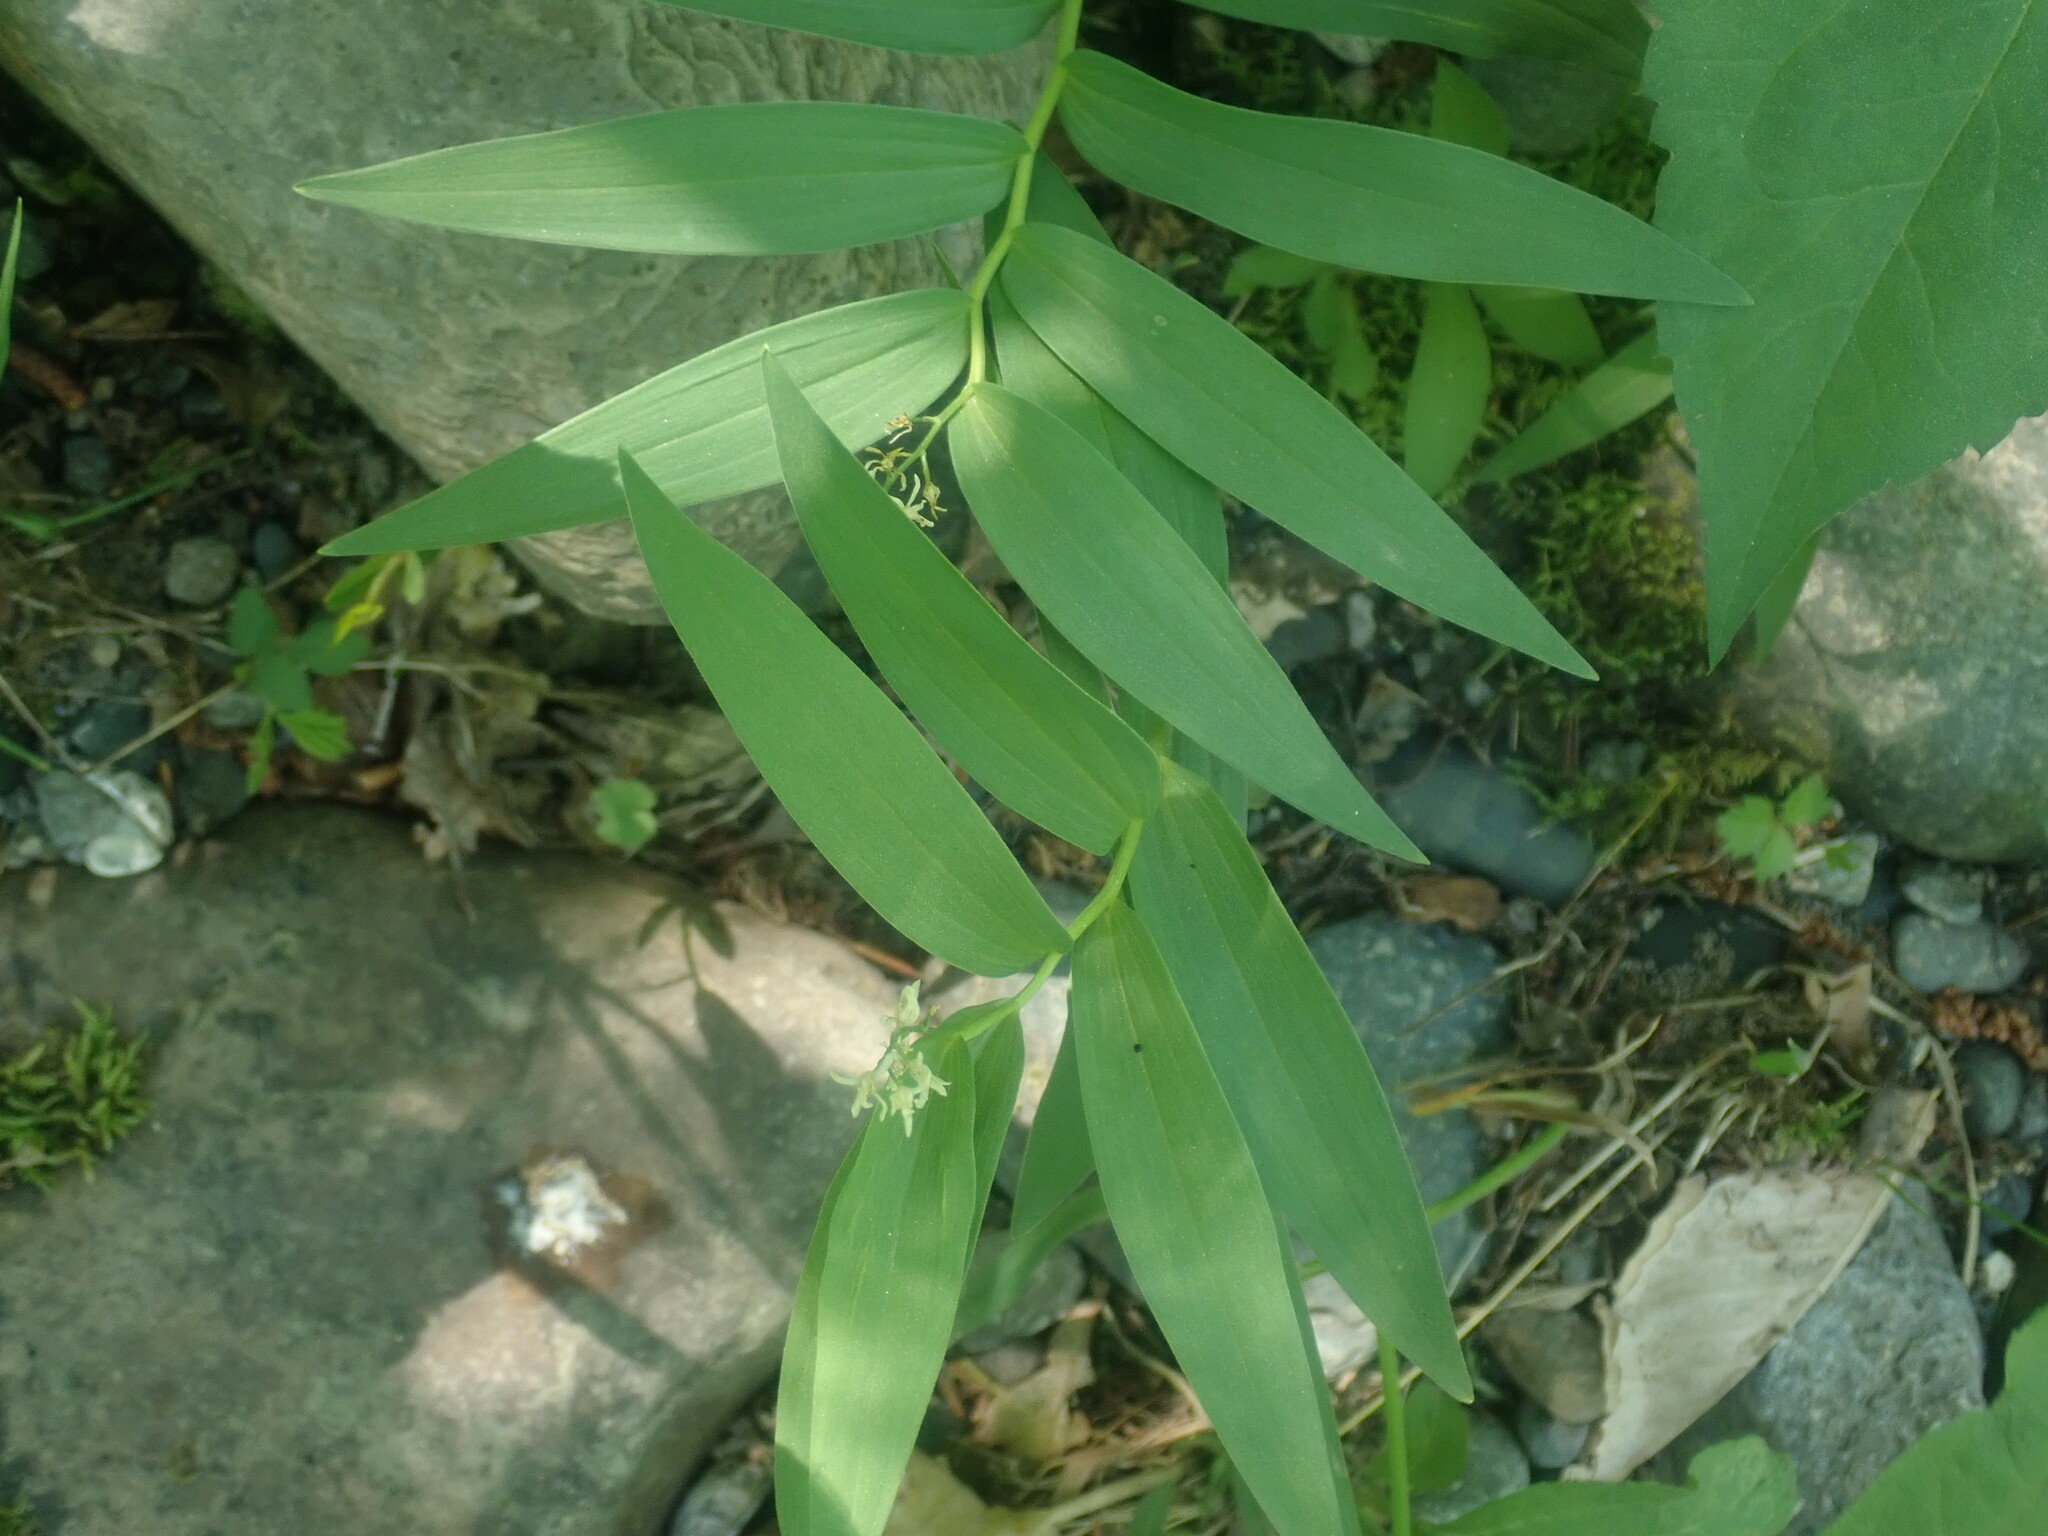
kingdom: Plantae
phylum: Tracheophyta
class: Liliopsida
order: Asparagales
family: Asparagaceae
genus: Maianthemum
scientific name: Maianthemum stellatum
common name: Little false solomon's seal
